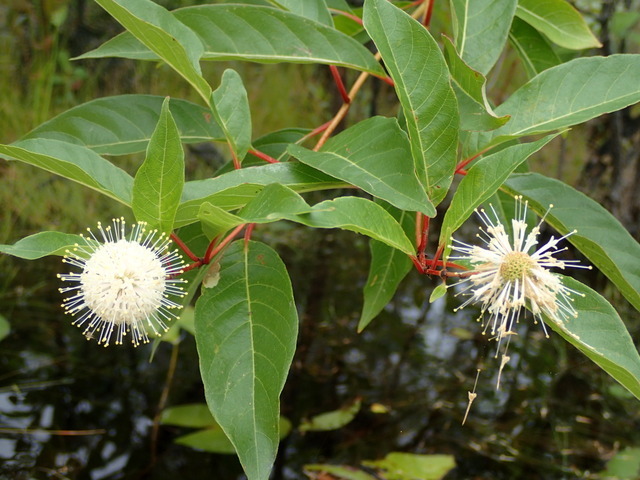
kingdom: Plantae
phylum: Tracheophyta
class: Magnoliopsida
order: Gentianales
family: Rubiaceae
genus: Cephalanthus
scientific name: Cephalanthus occidentalis
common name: Button-willow
